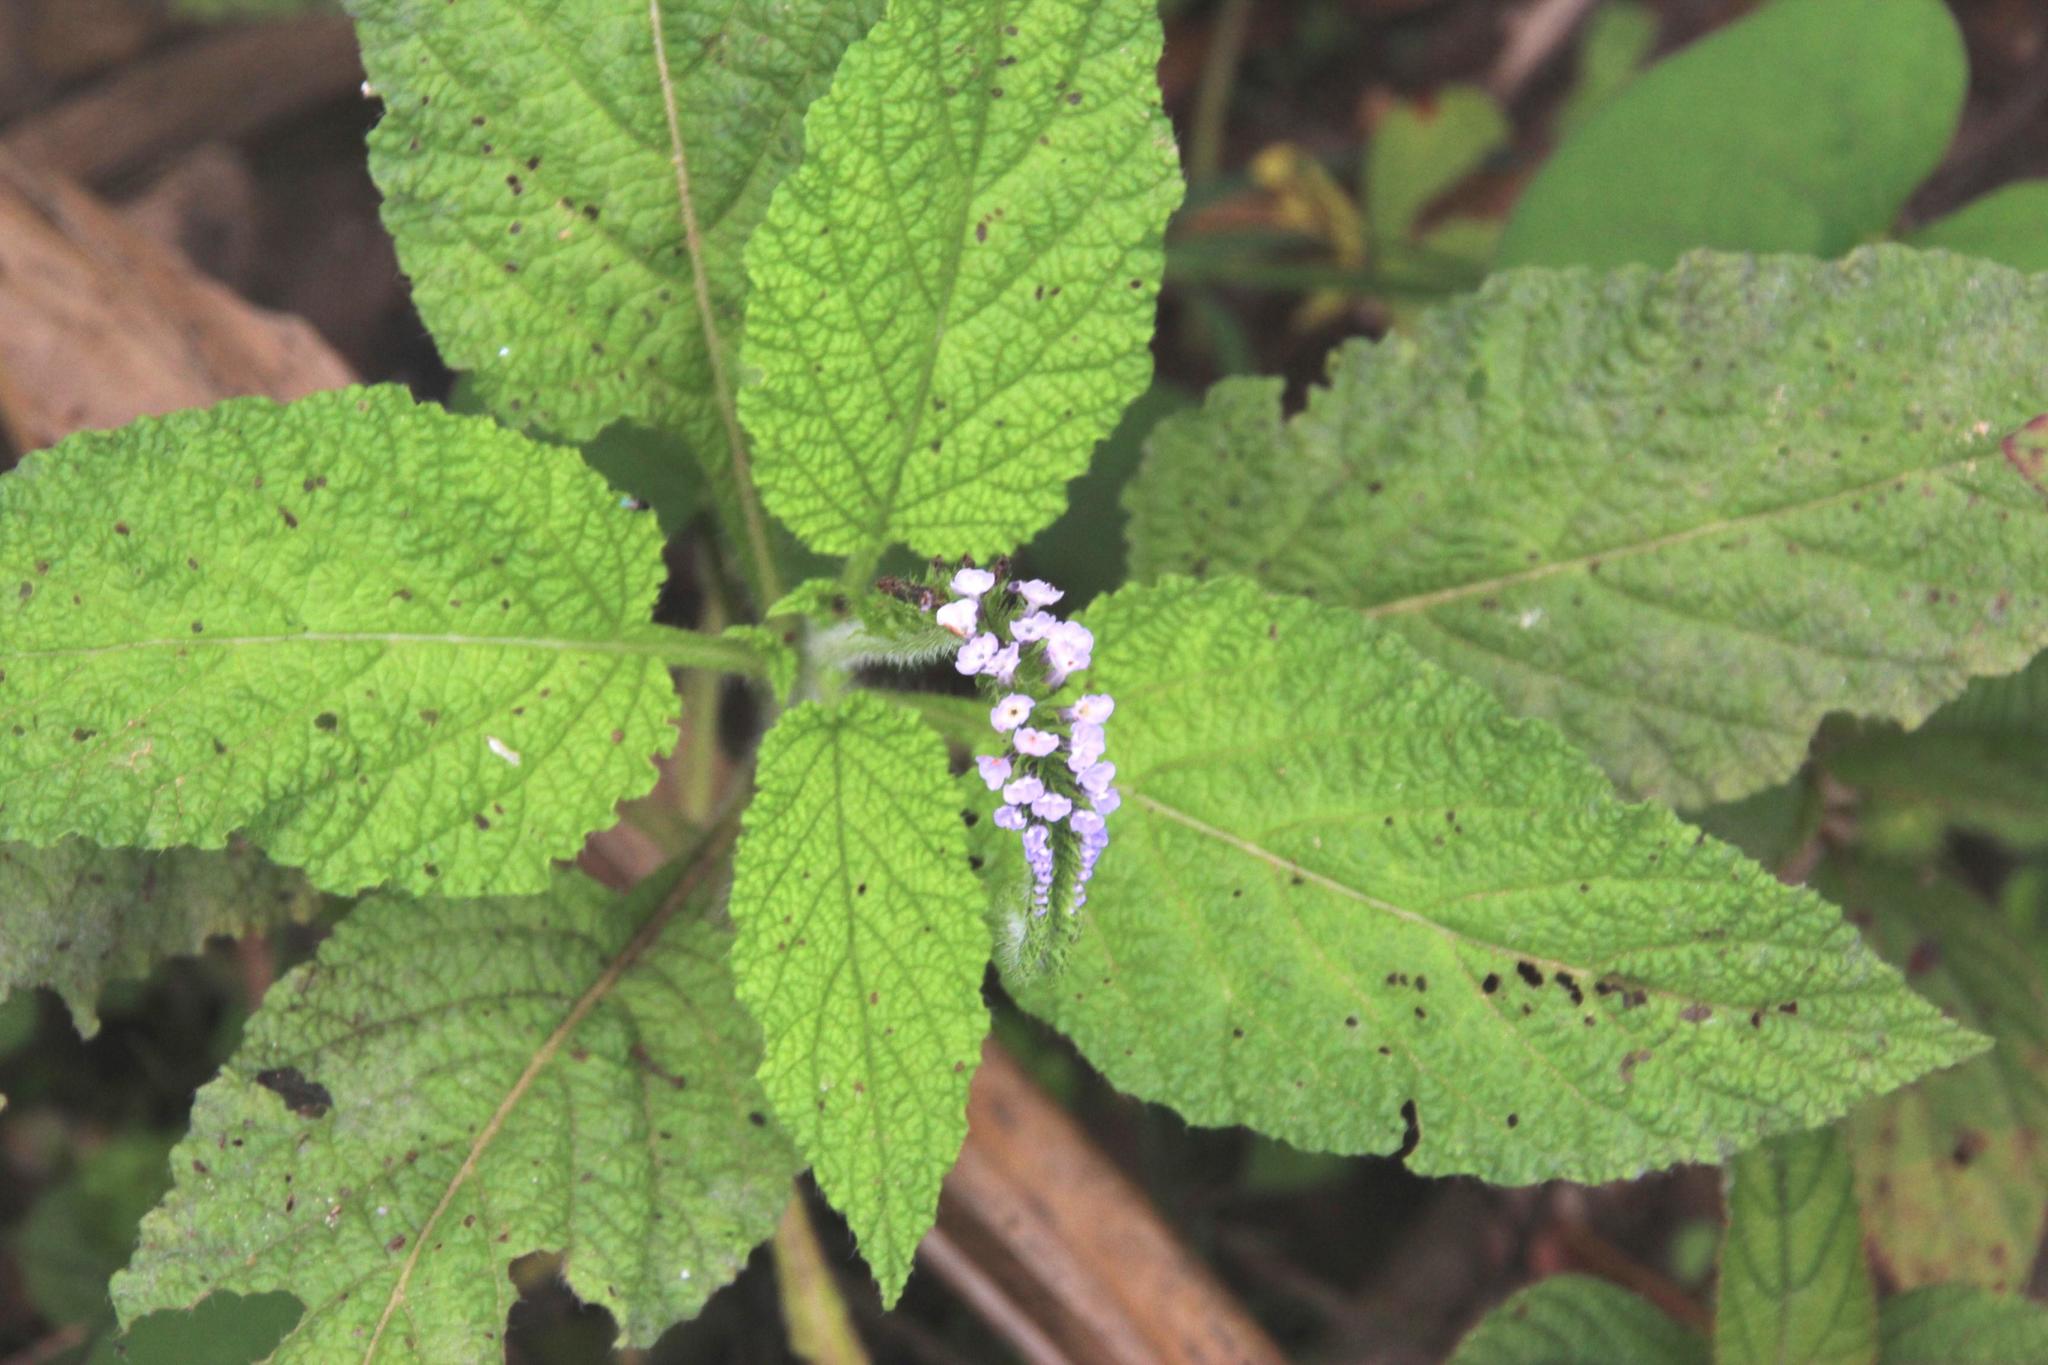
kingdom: Plantae
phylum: Tracheophyta
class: Magnoliopsida
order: Boraginales
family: Heliotropiaceae
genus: Heliotropium
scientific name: Heliotropium indicum
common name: Indian heliotrope
